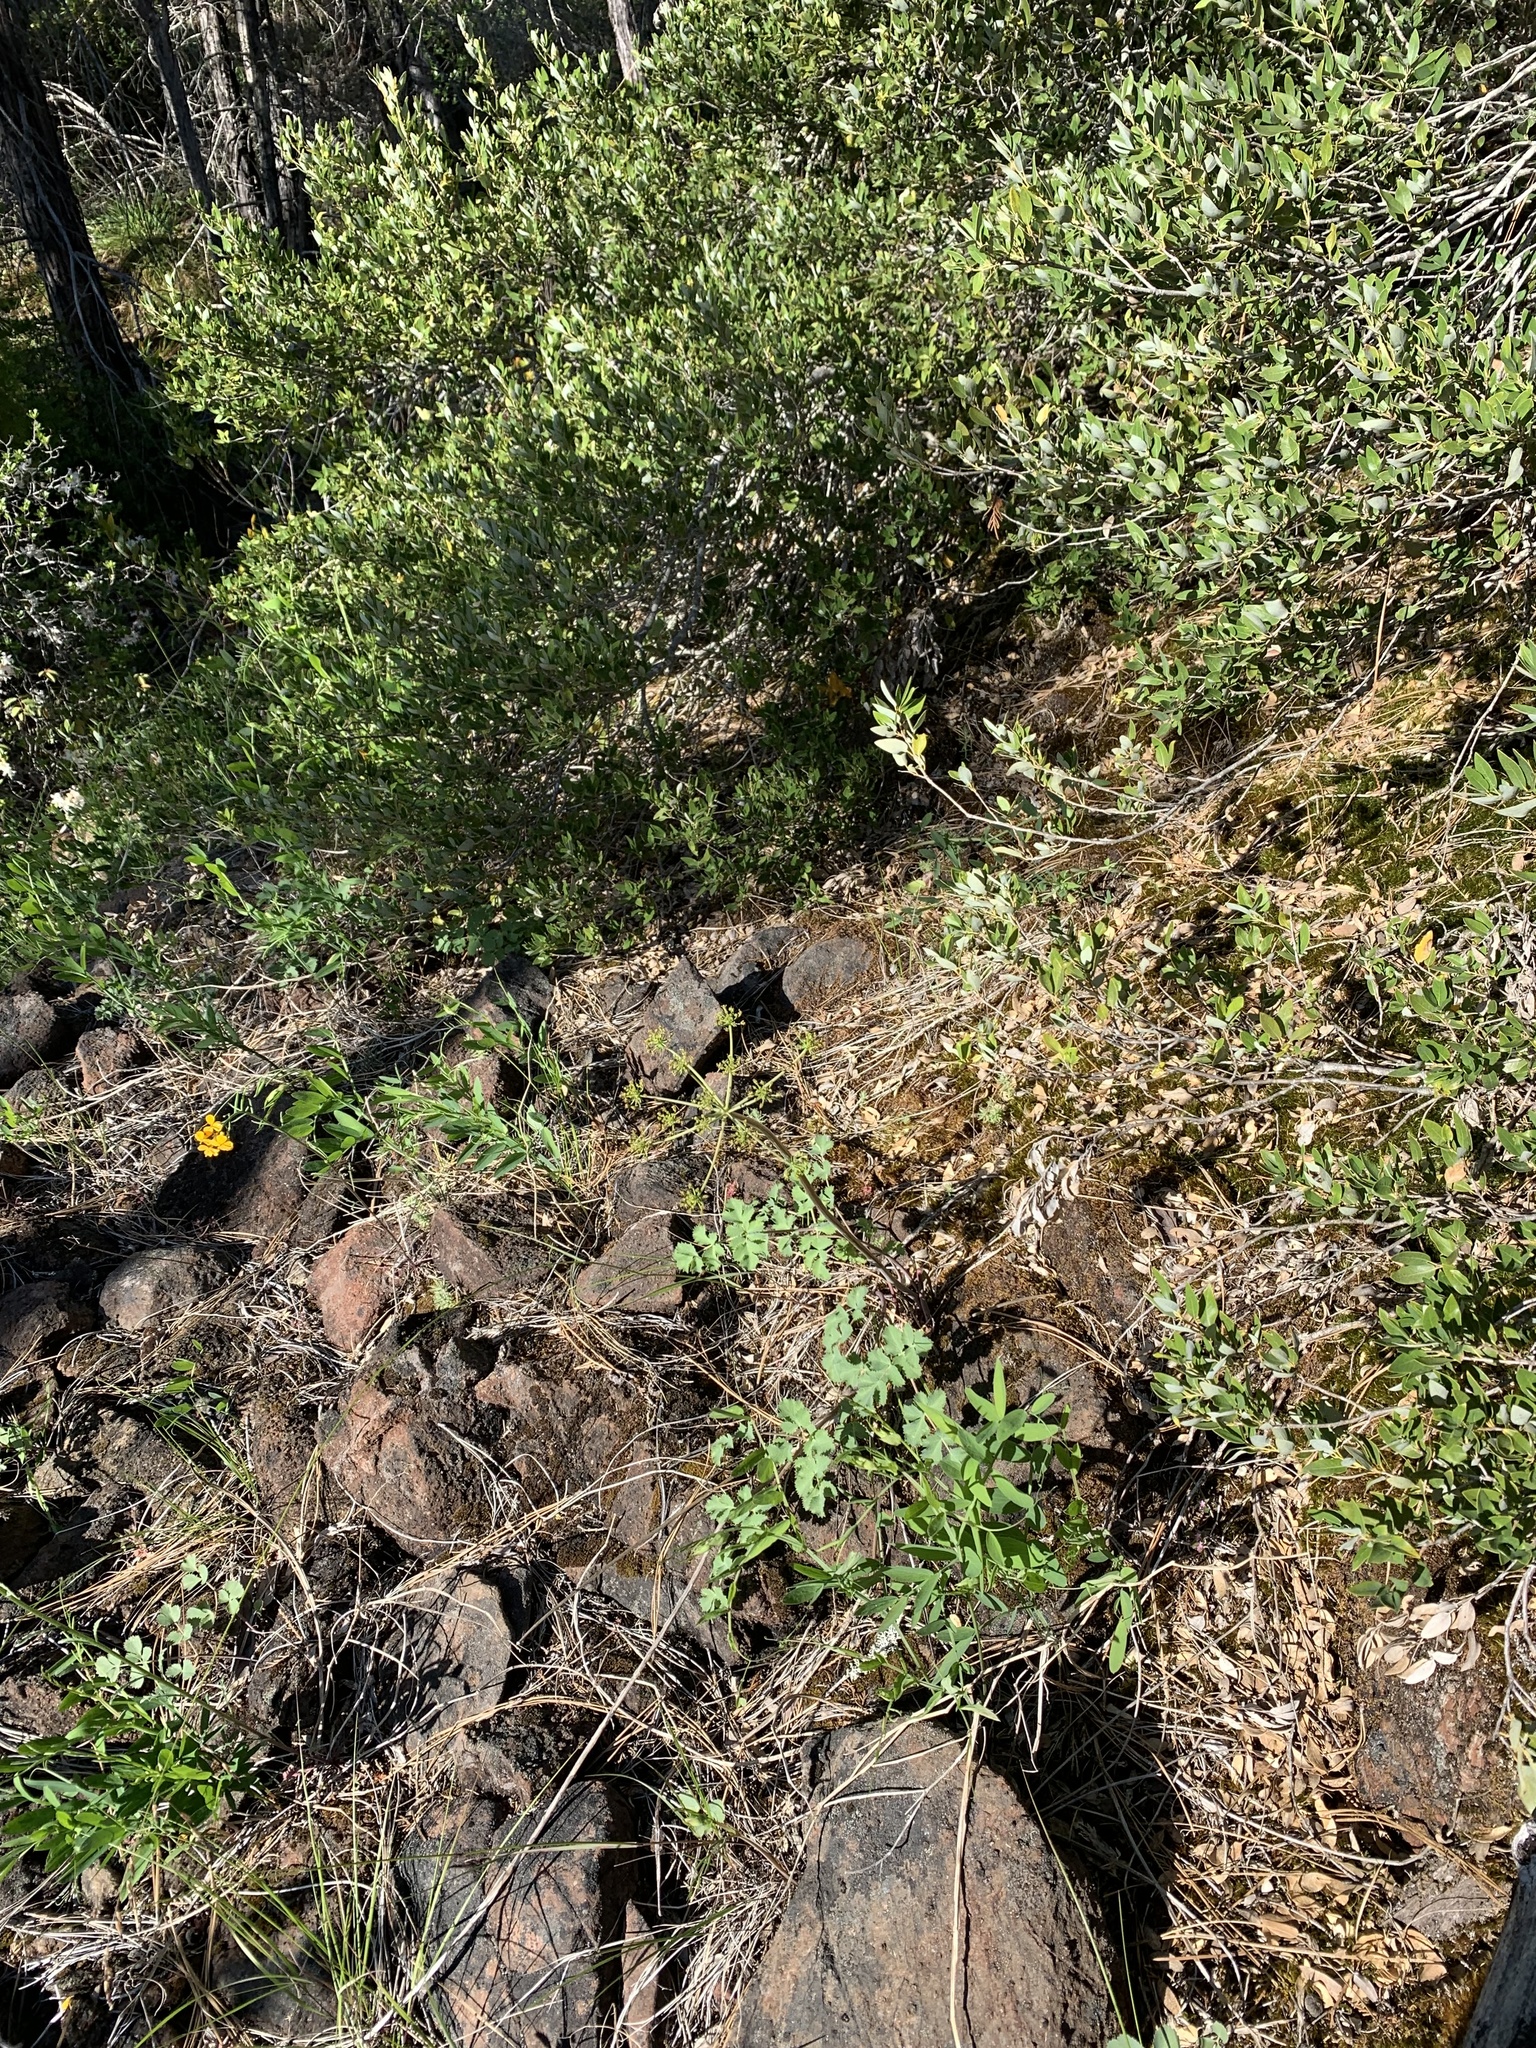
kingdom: Plantae
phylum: Tracheophyta
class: Magnoliopsida
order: Apiales
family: Apiaceae
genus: Lomatium
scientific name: Lomatium howellii
